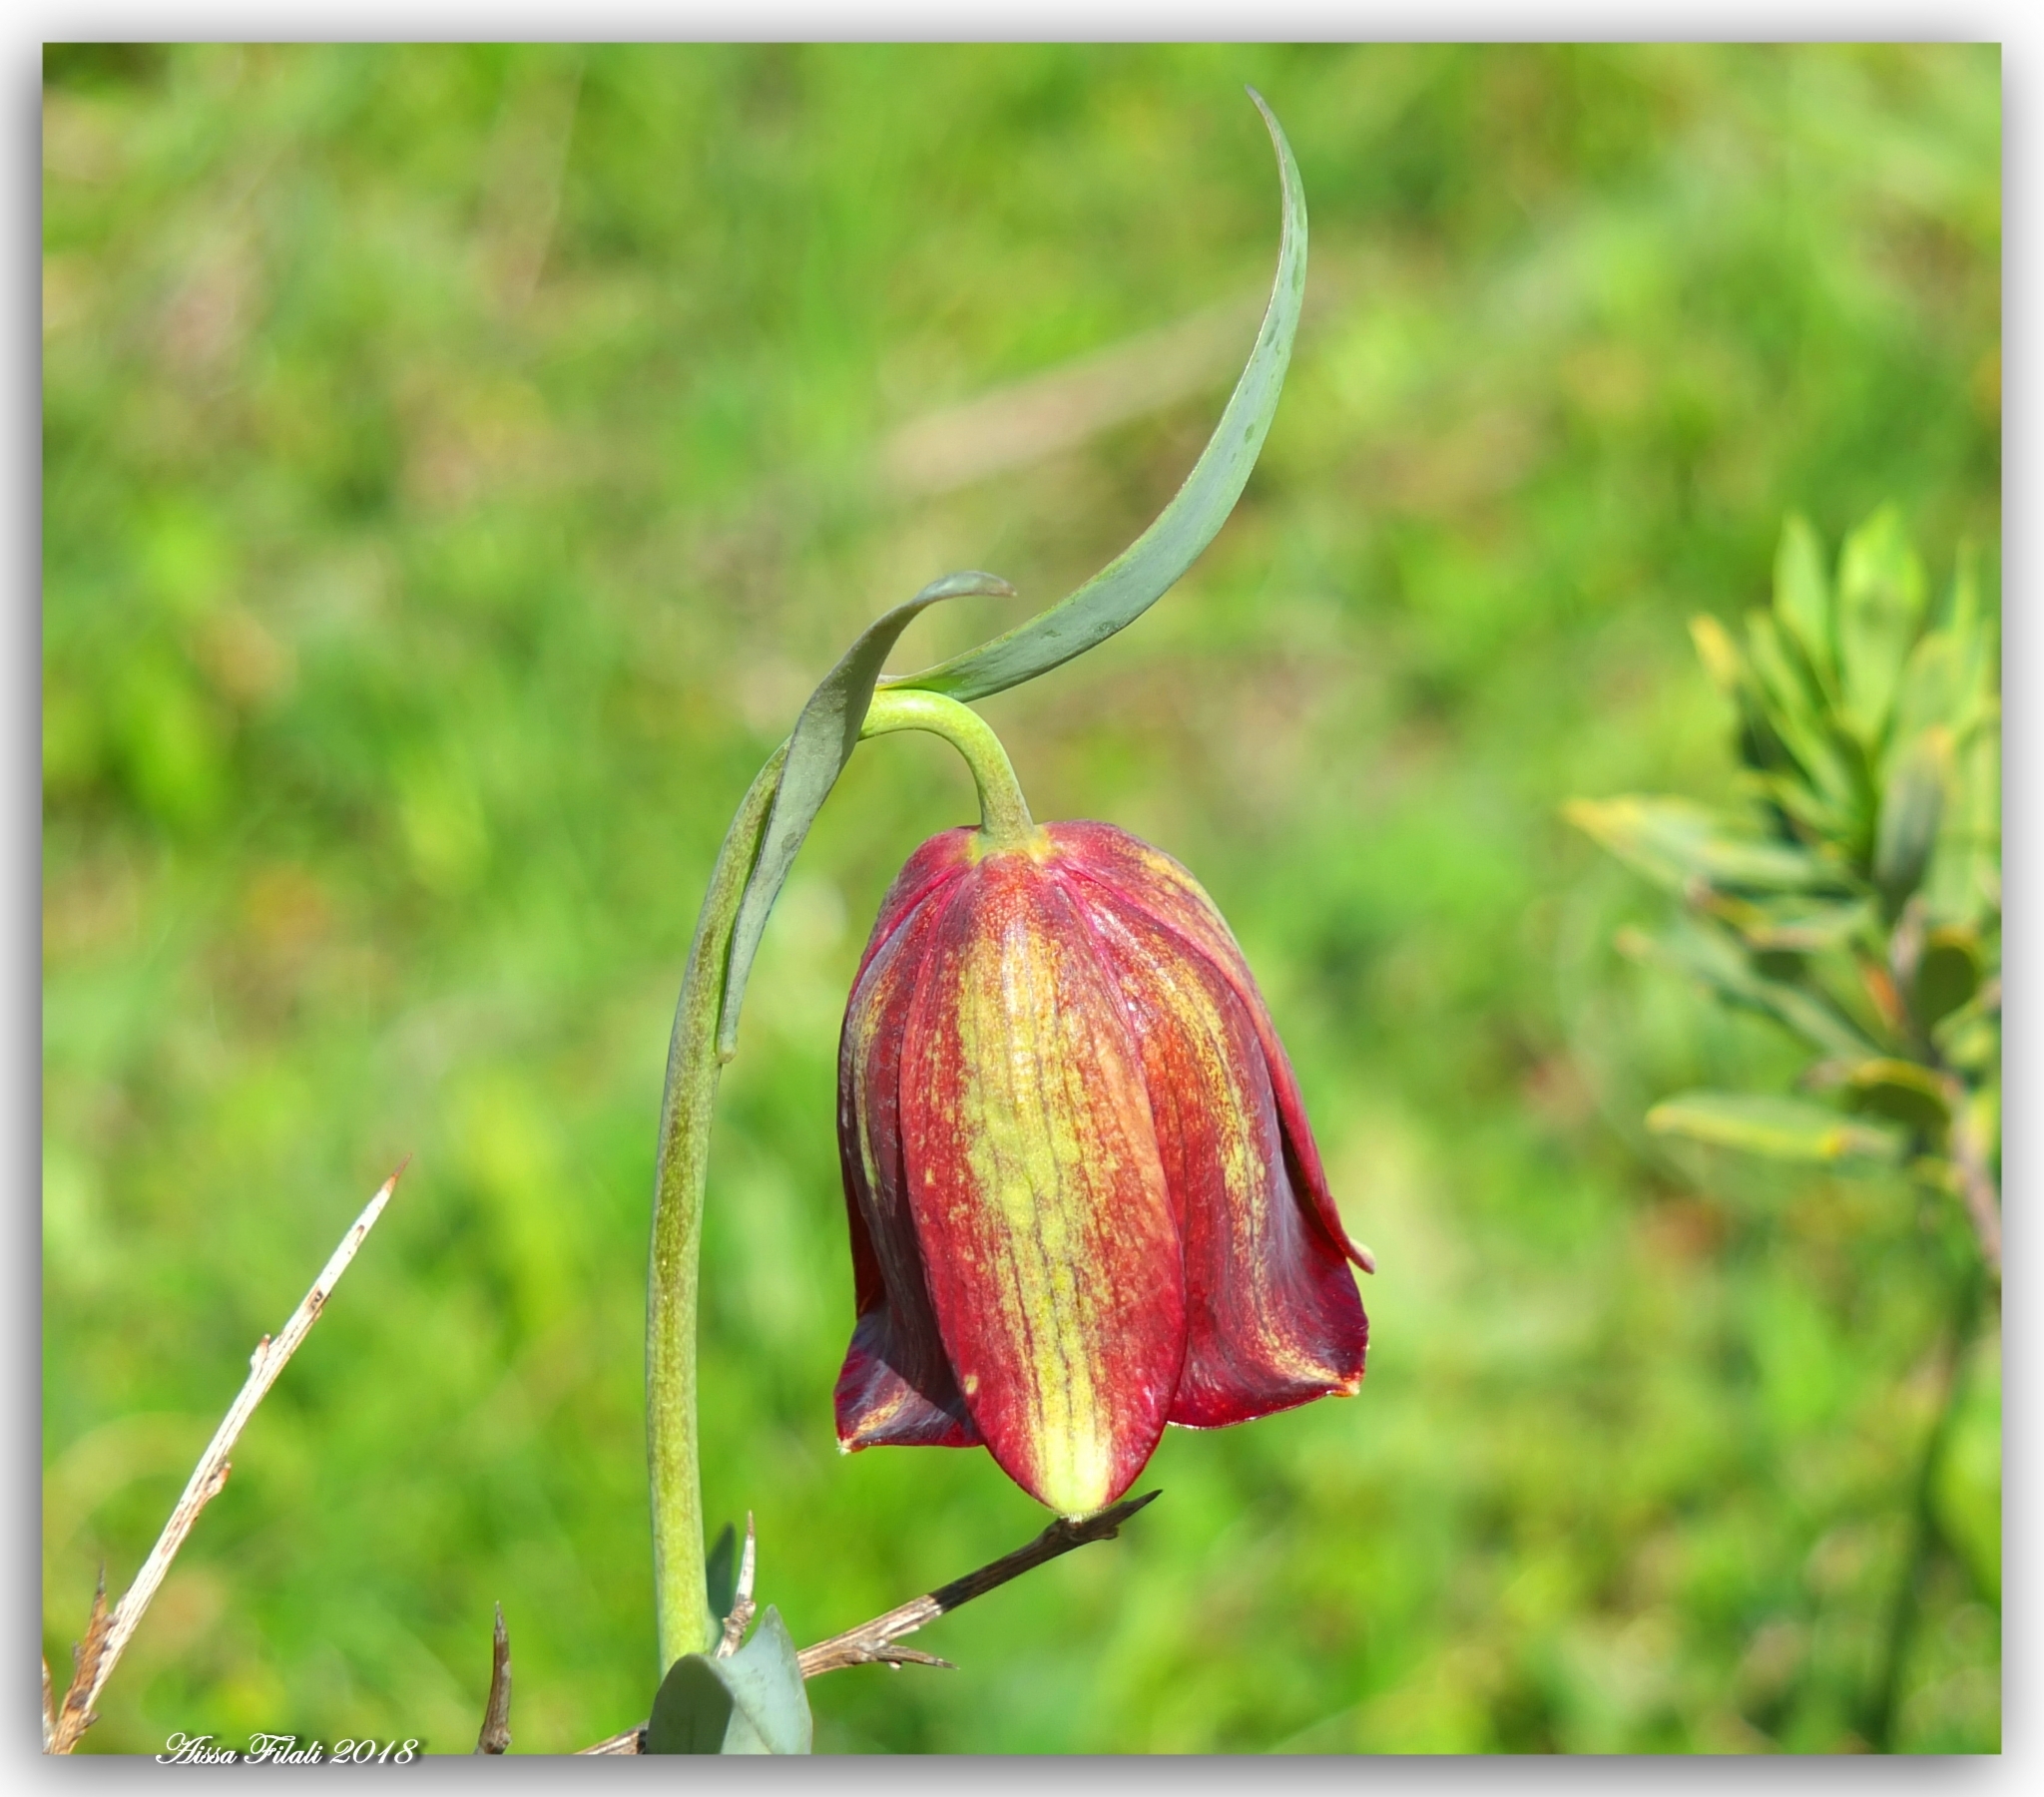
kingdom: Plantae
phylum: Tracheophyta
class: Liliopsida
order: Liliales
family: Liliaceae
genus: Fritillaria
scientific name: Fritillaria oranensis
